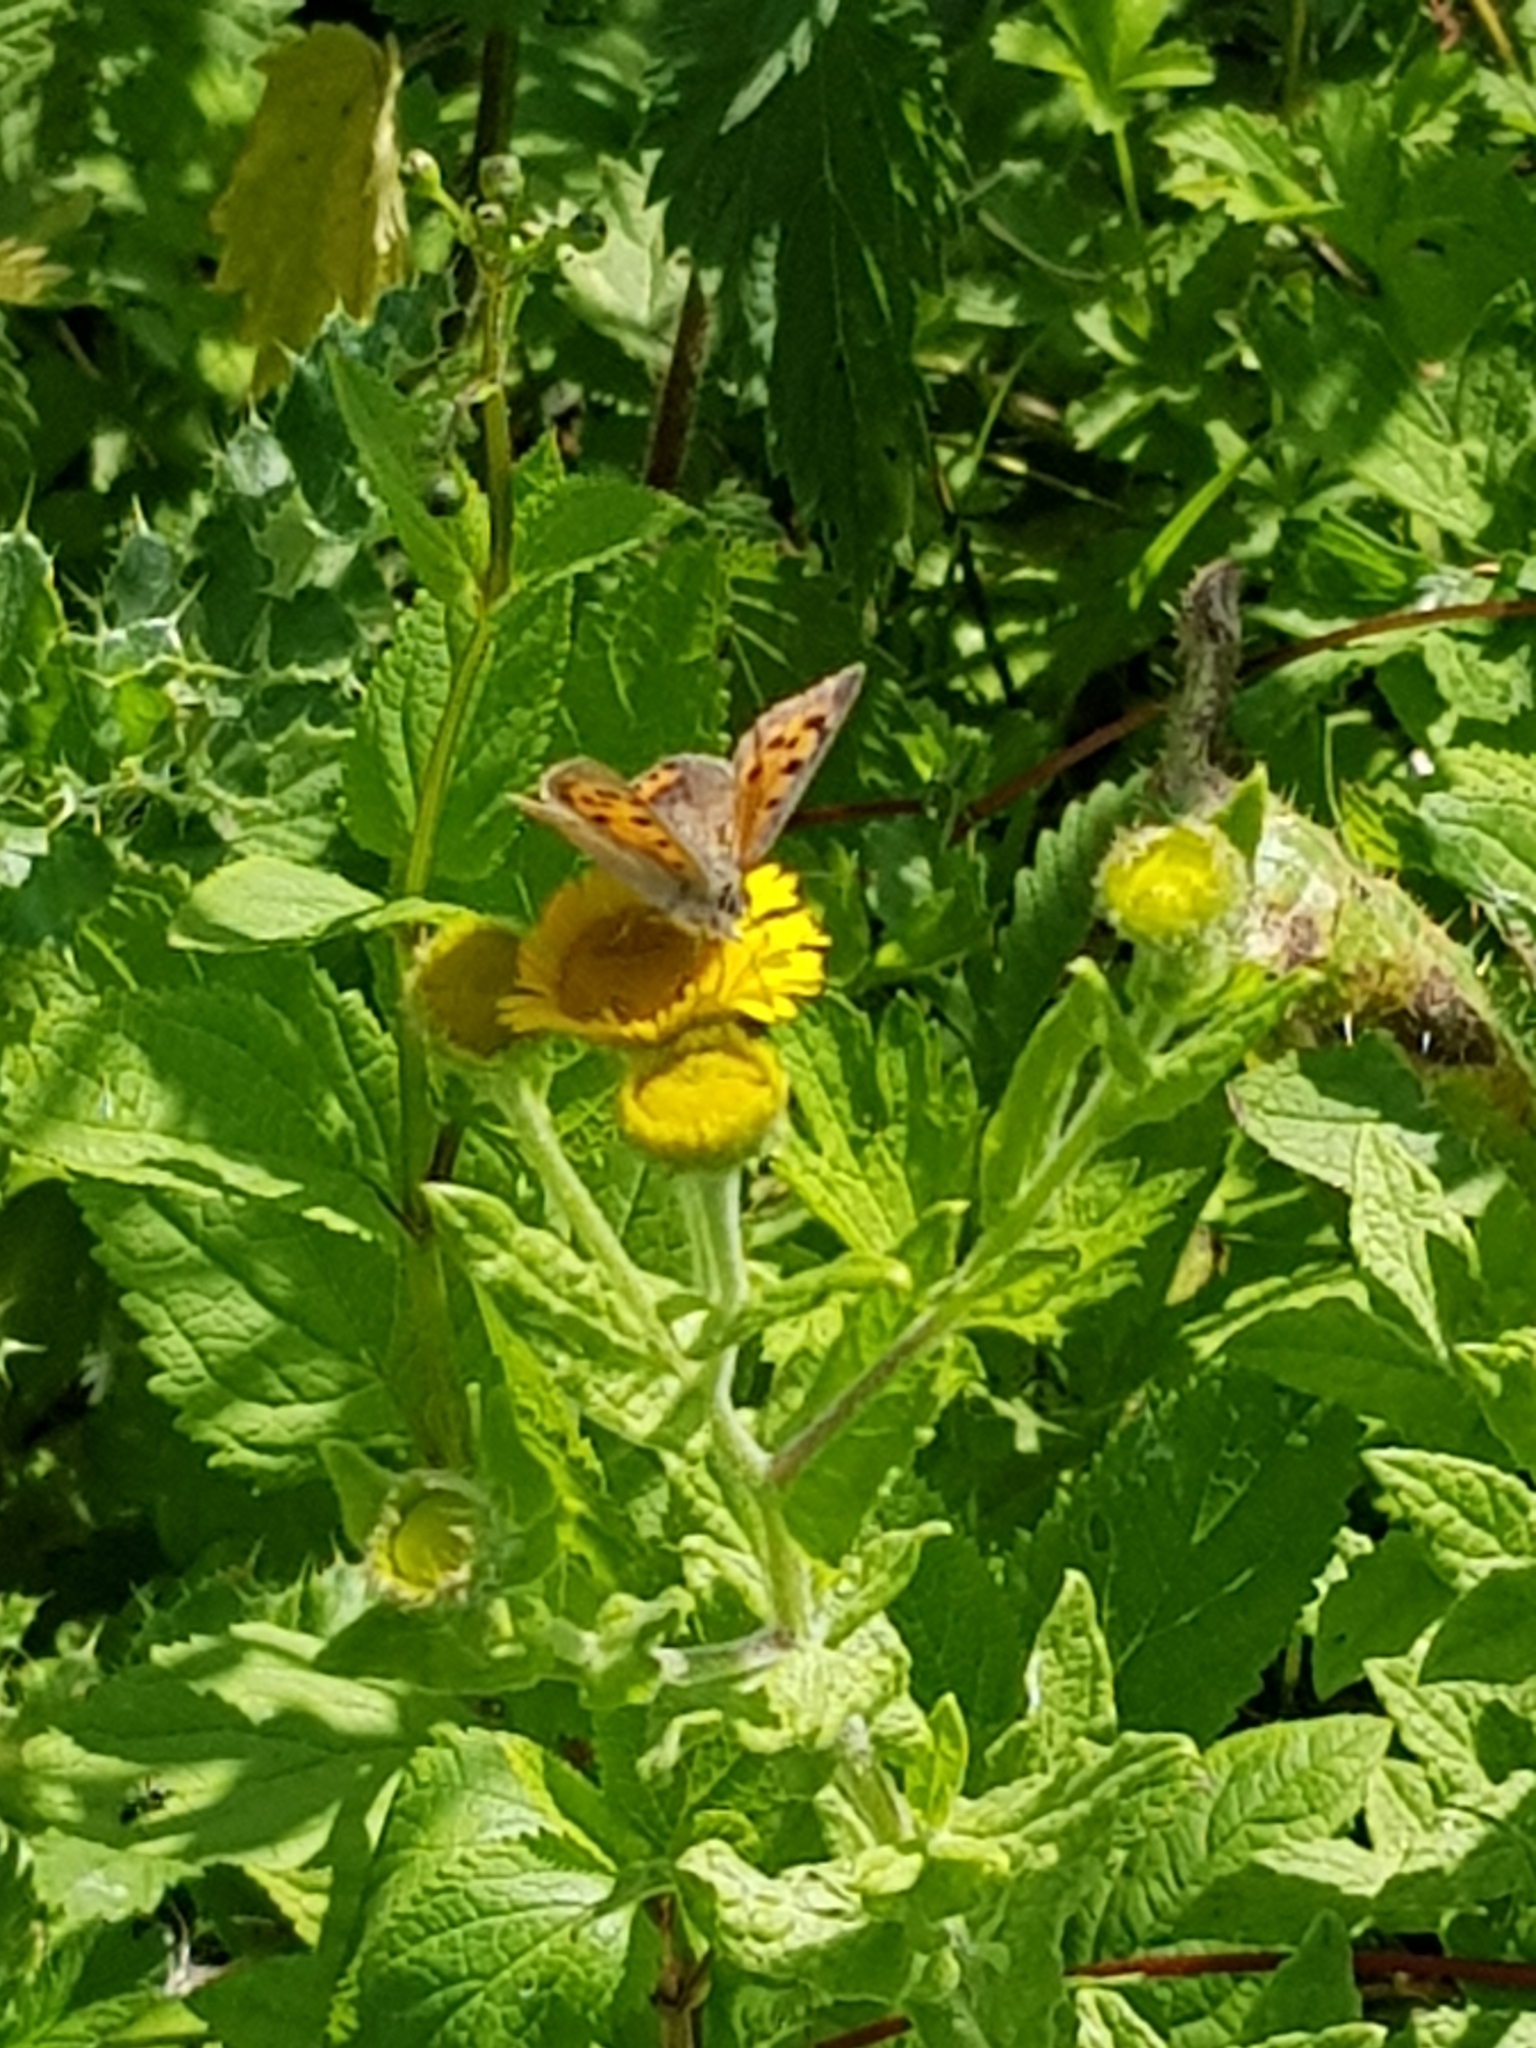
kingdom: Animalia
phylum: Arthropoda
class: Insecta
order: Lepidoptera
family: Lycaenidae
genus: Lycaena
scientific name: Lycaena phlaeas
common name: Small copper
